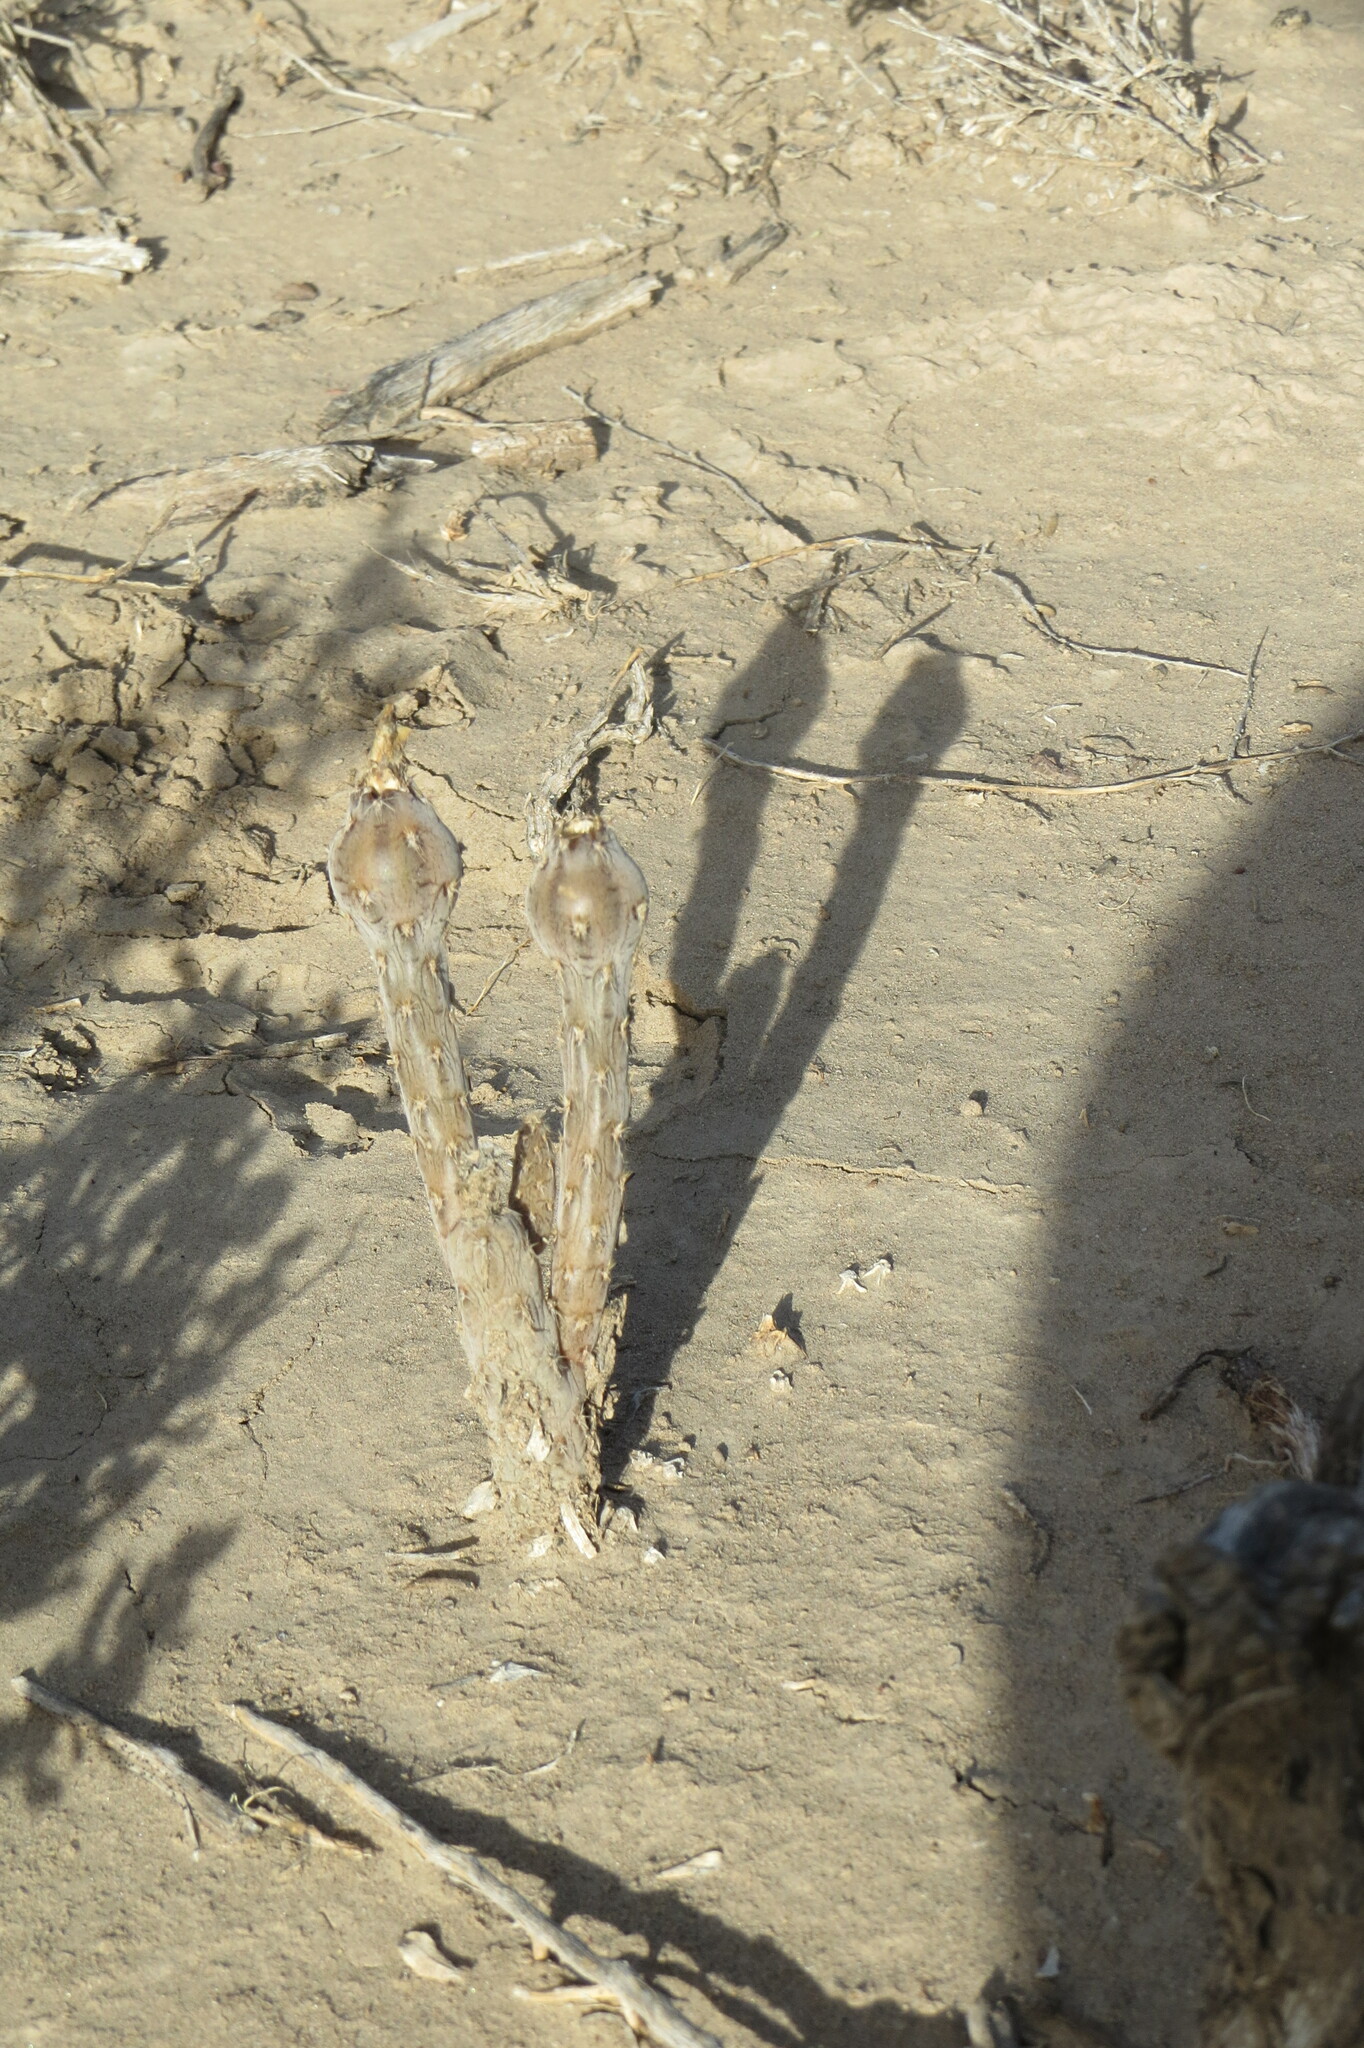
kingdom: Plantae
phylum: Tracheophyta
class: Magnoliopsida
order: Caryophyllales
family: Cactaceae
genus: Pterocactus
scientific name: Pterocactus tuberosus
